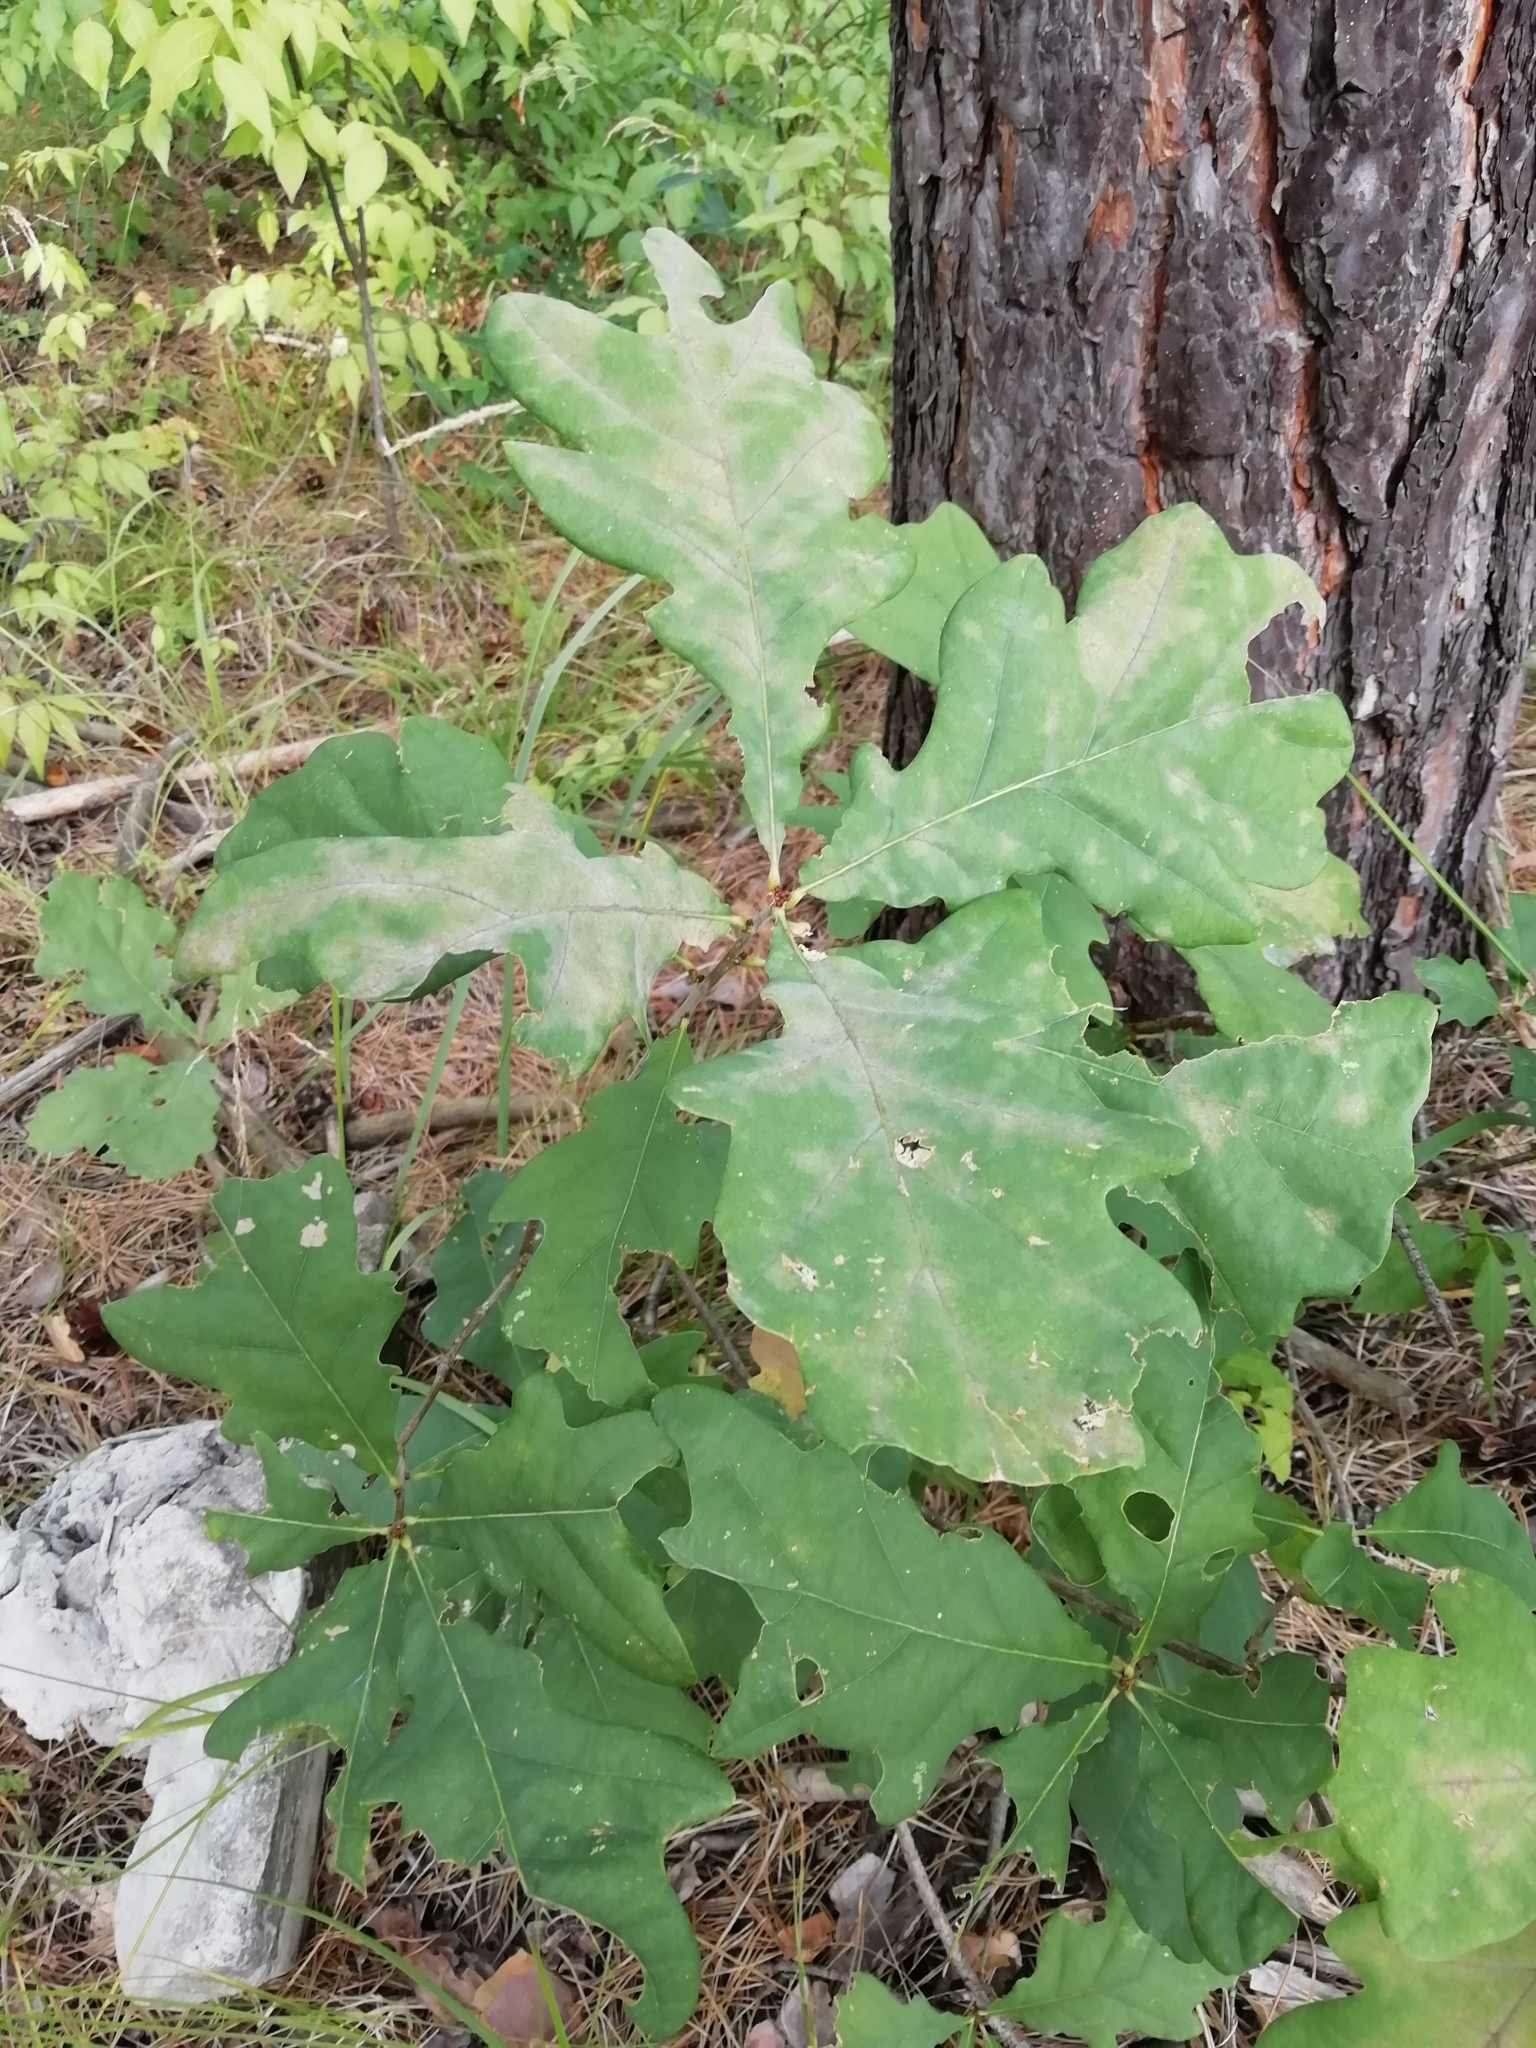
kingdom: Plantae
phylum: Tracheophyta
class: Magnoliopsida
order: Fagales
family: Fagaceae
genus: Quercus
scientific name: Quercus robur
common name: Pedunculate oak
